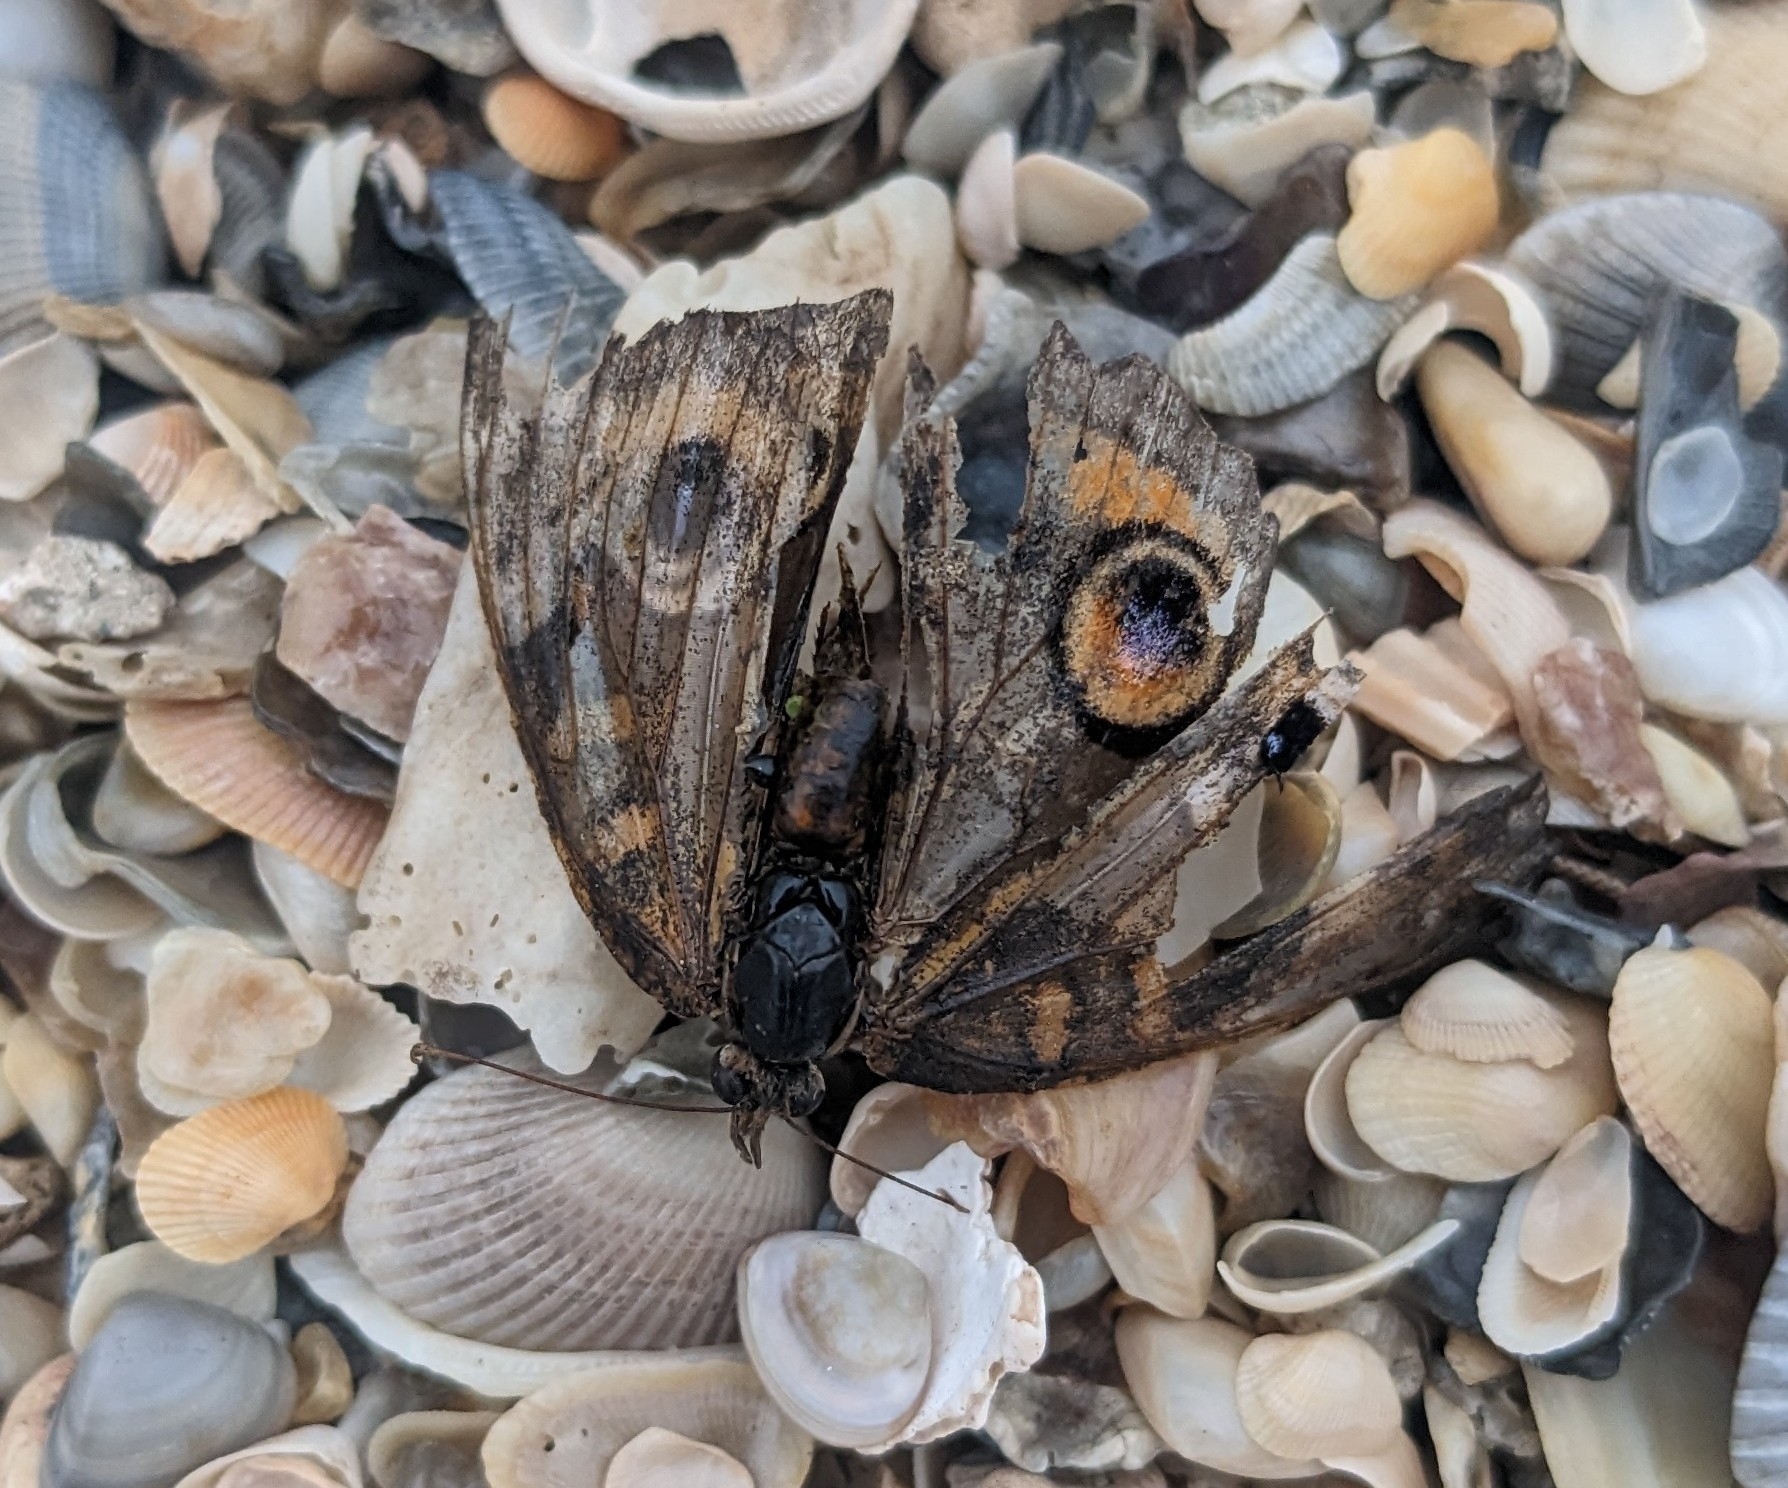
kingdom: Animalia
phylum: Arthropoda
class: Insecta
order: Lepidoptera
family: Nymphalidae
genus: Junonia
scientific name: Junonia coenia
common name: Common buckeye
